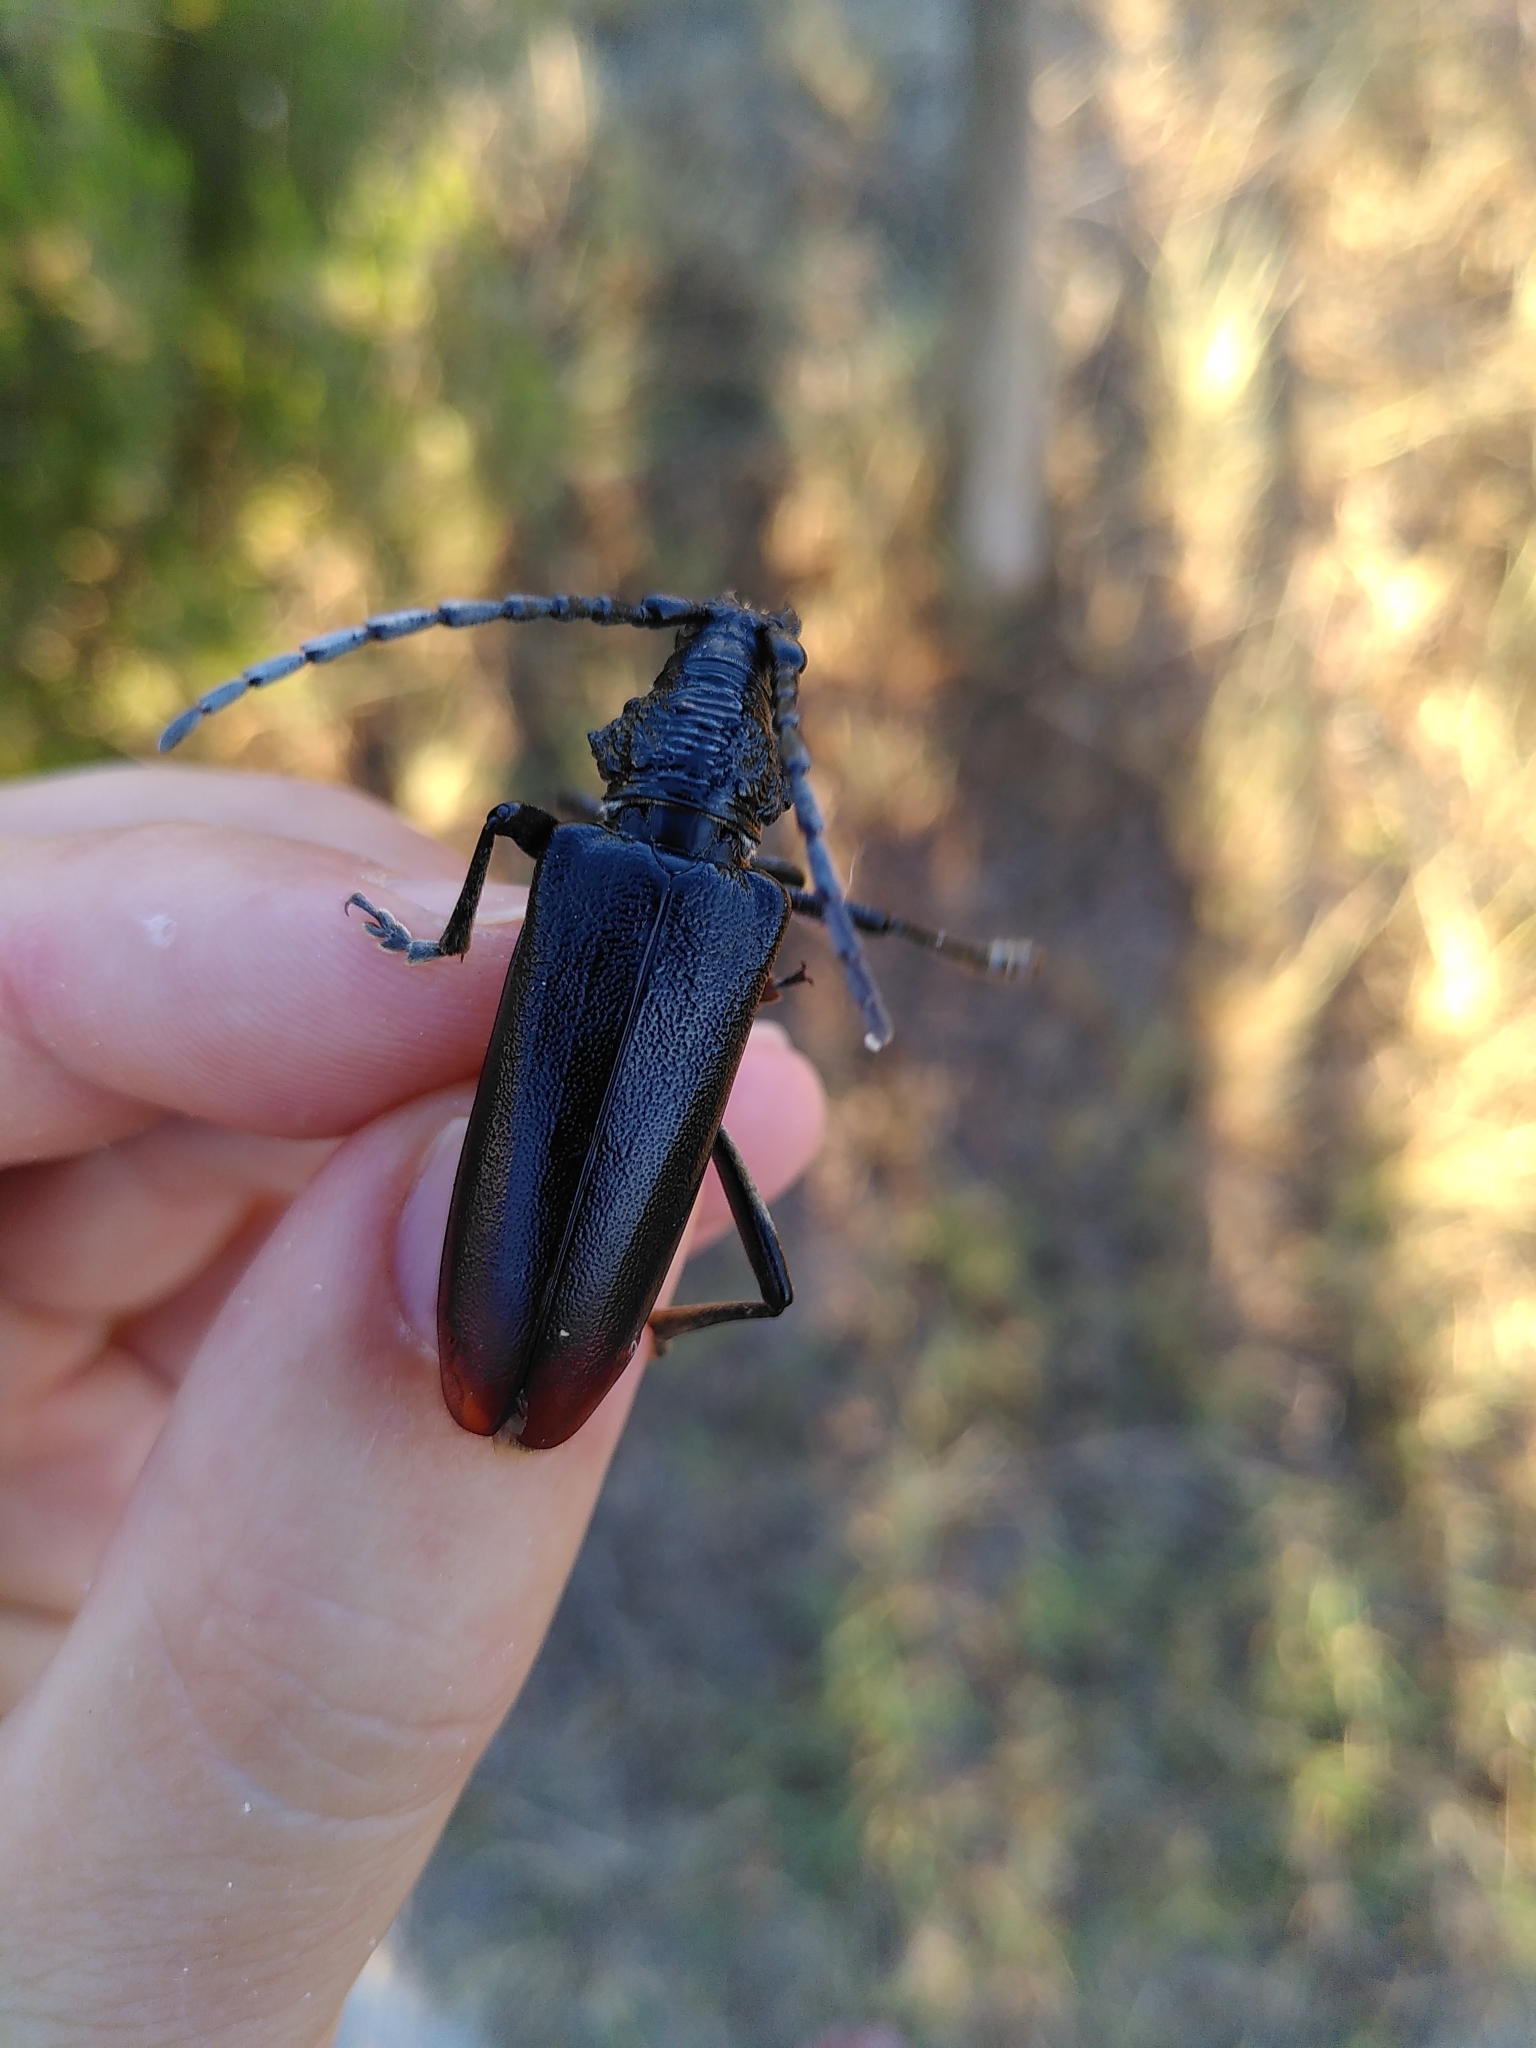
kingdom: Animalia
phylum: Arthropoda
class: Insecta
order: Coleoptera
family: Cerambycidae
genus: Cerambyx
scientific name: Cerambyx miles
